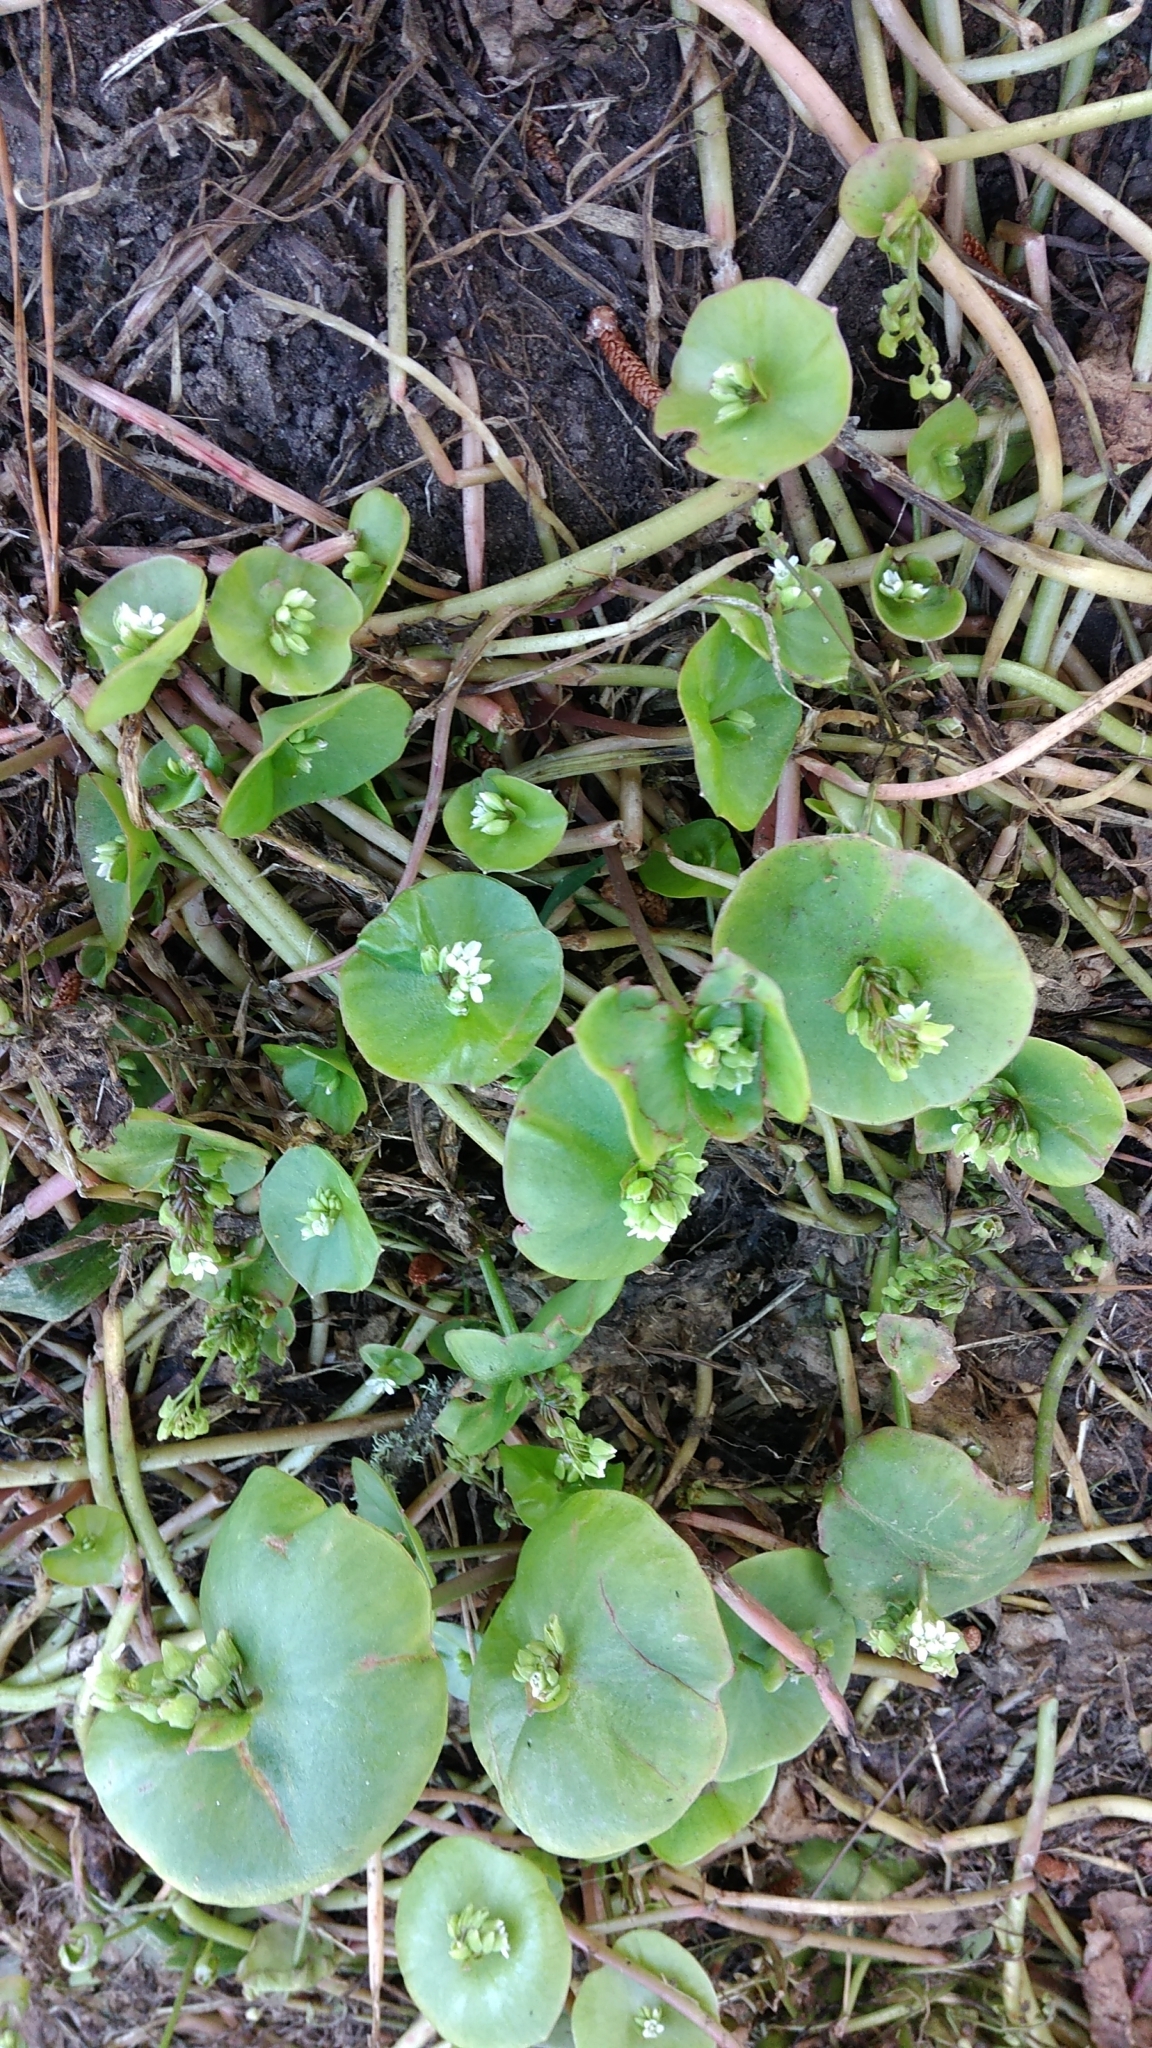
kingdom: Plantae
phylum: Tracheophyta
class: Magnoliopsida
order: Caryophyllales
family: Montiaceae
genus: Claytonia
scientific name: Claytonia perfoliata
